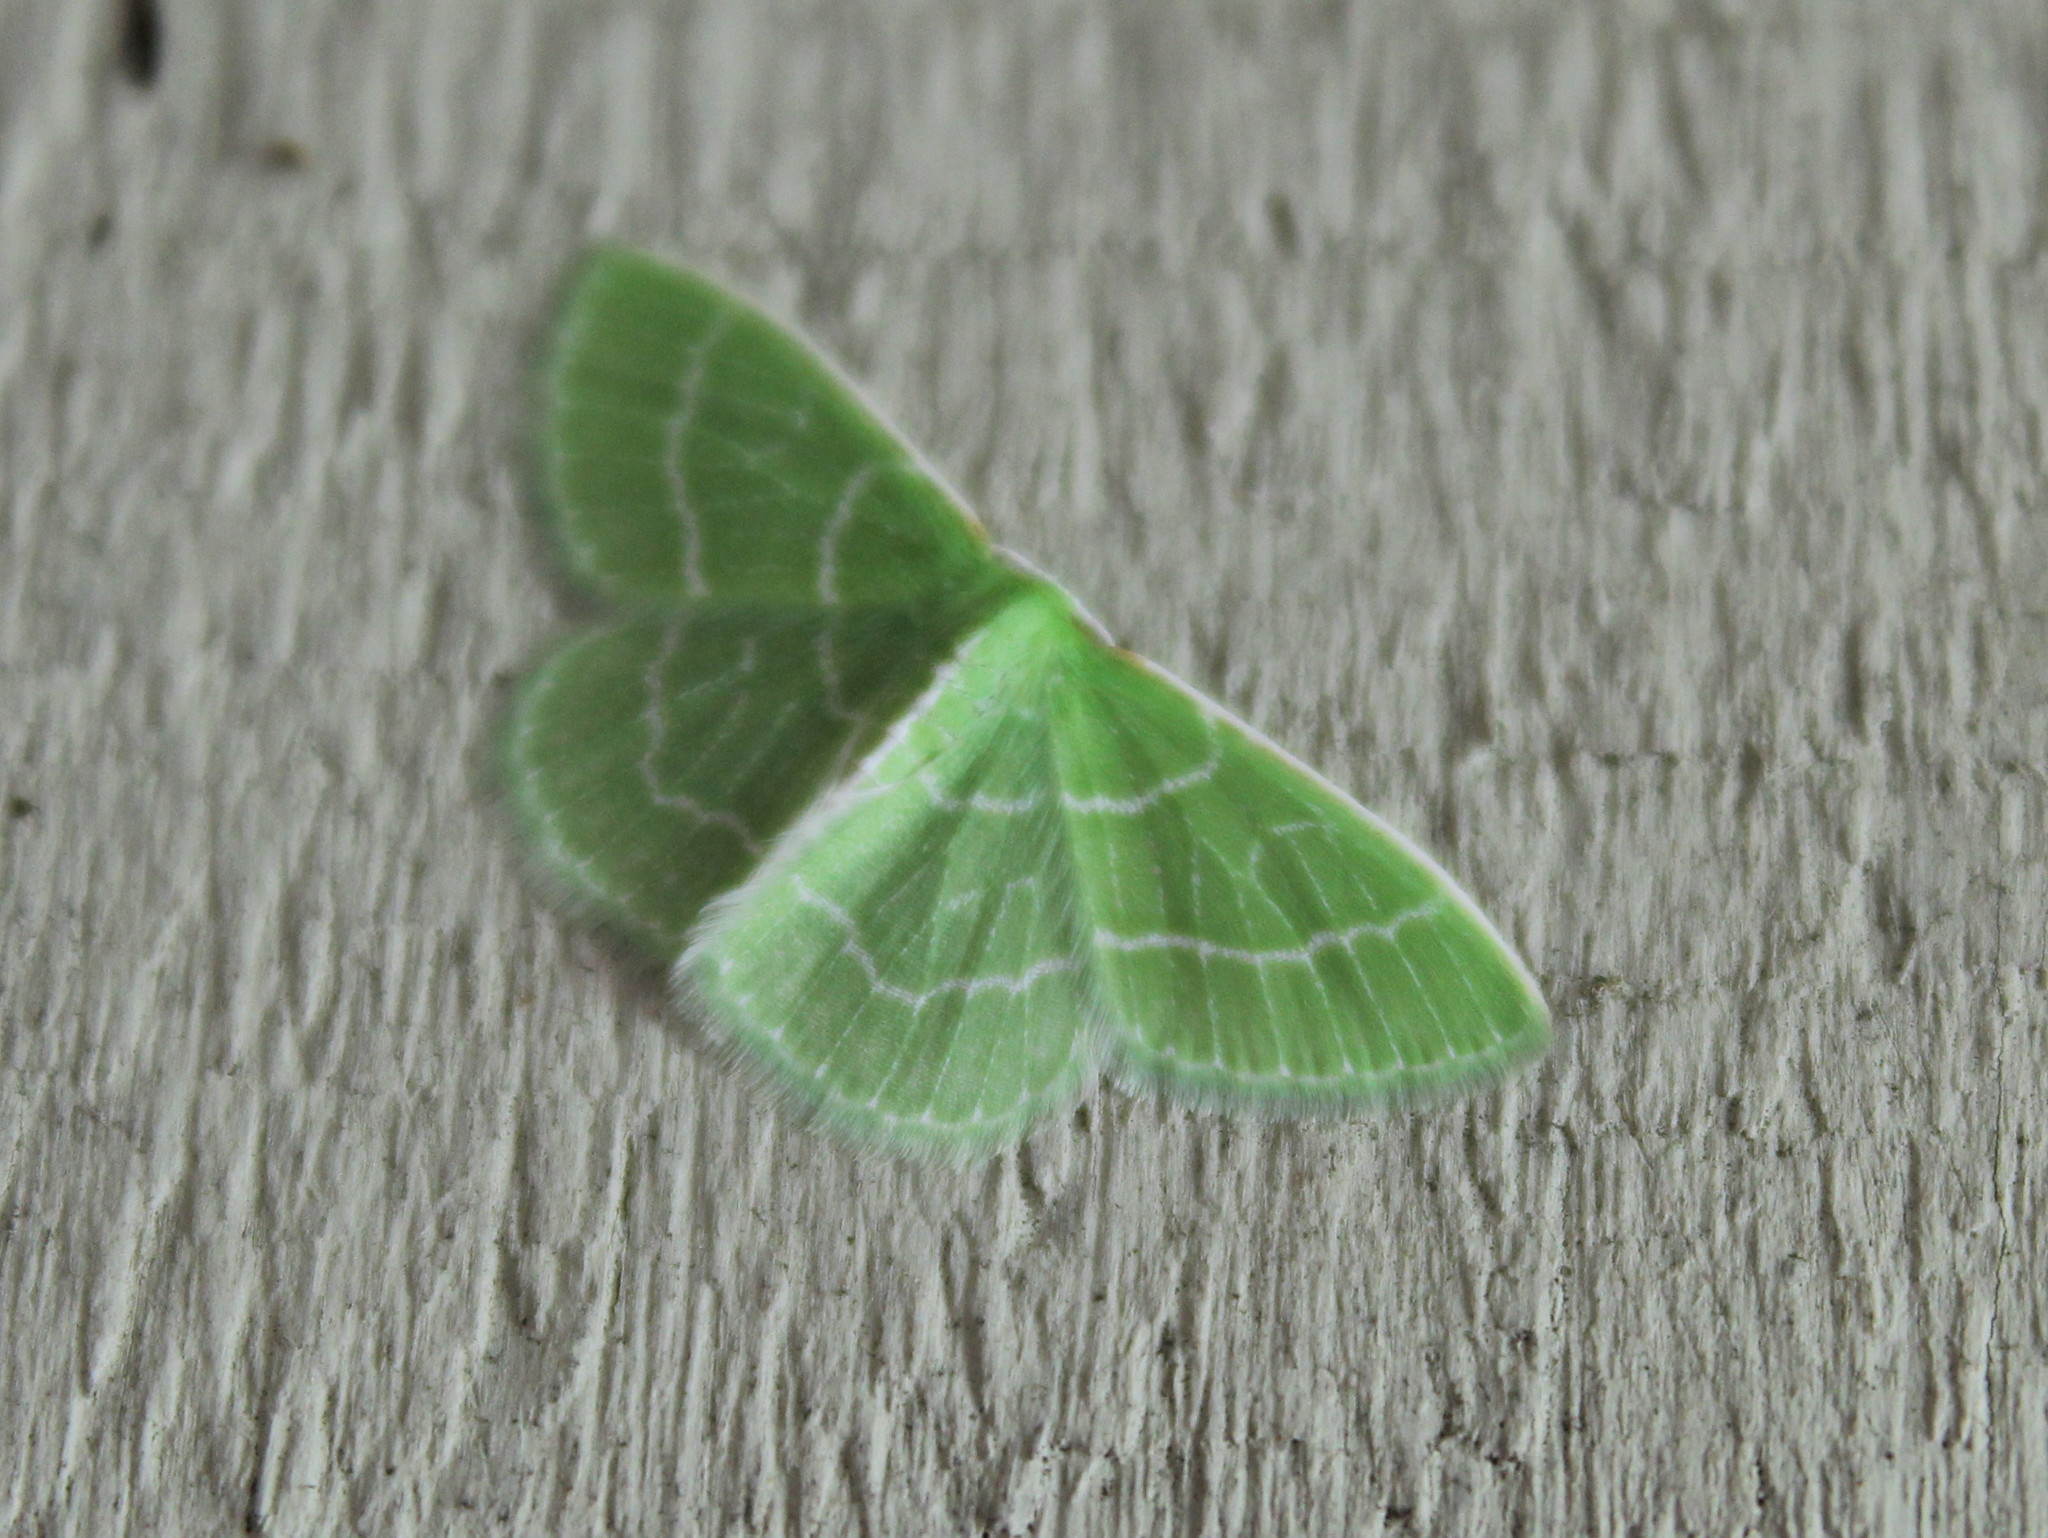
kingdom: Animalia
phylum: Arthropoda
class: Insecta
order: Lepidoptera
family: Geometridae
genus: Synchlora
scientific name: Synchlora aerata
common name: Wavy-lined emerald
